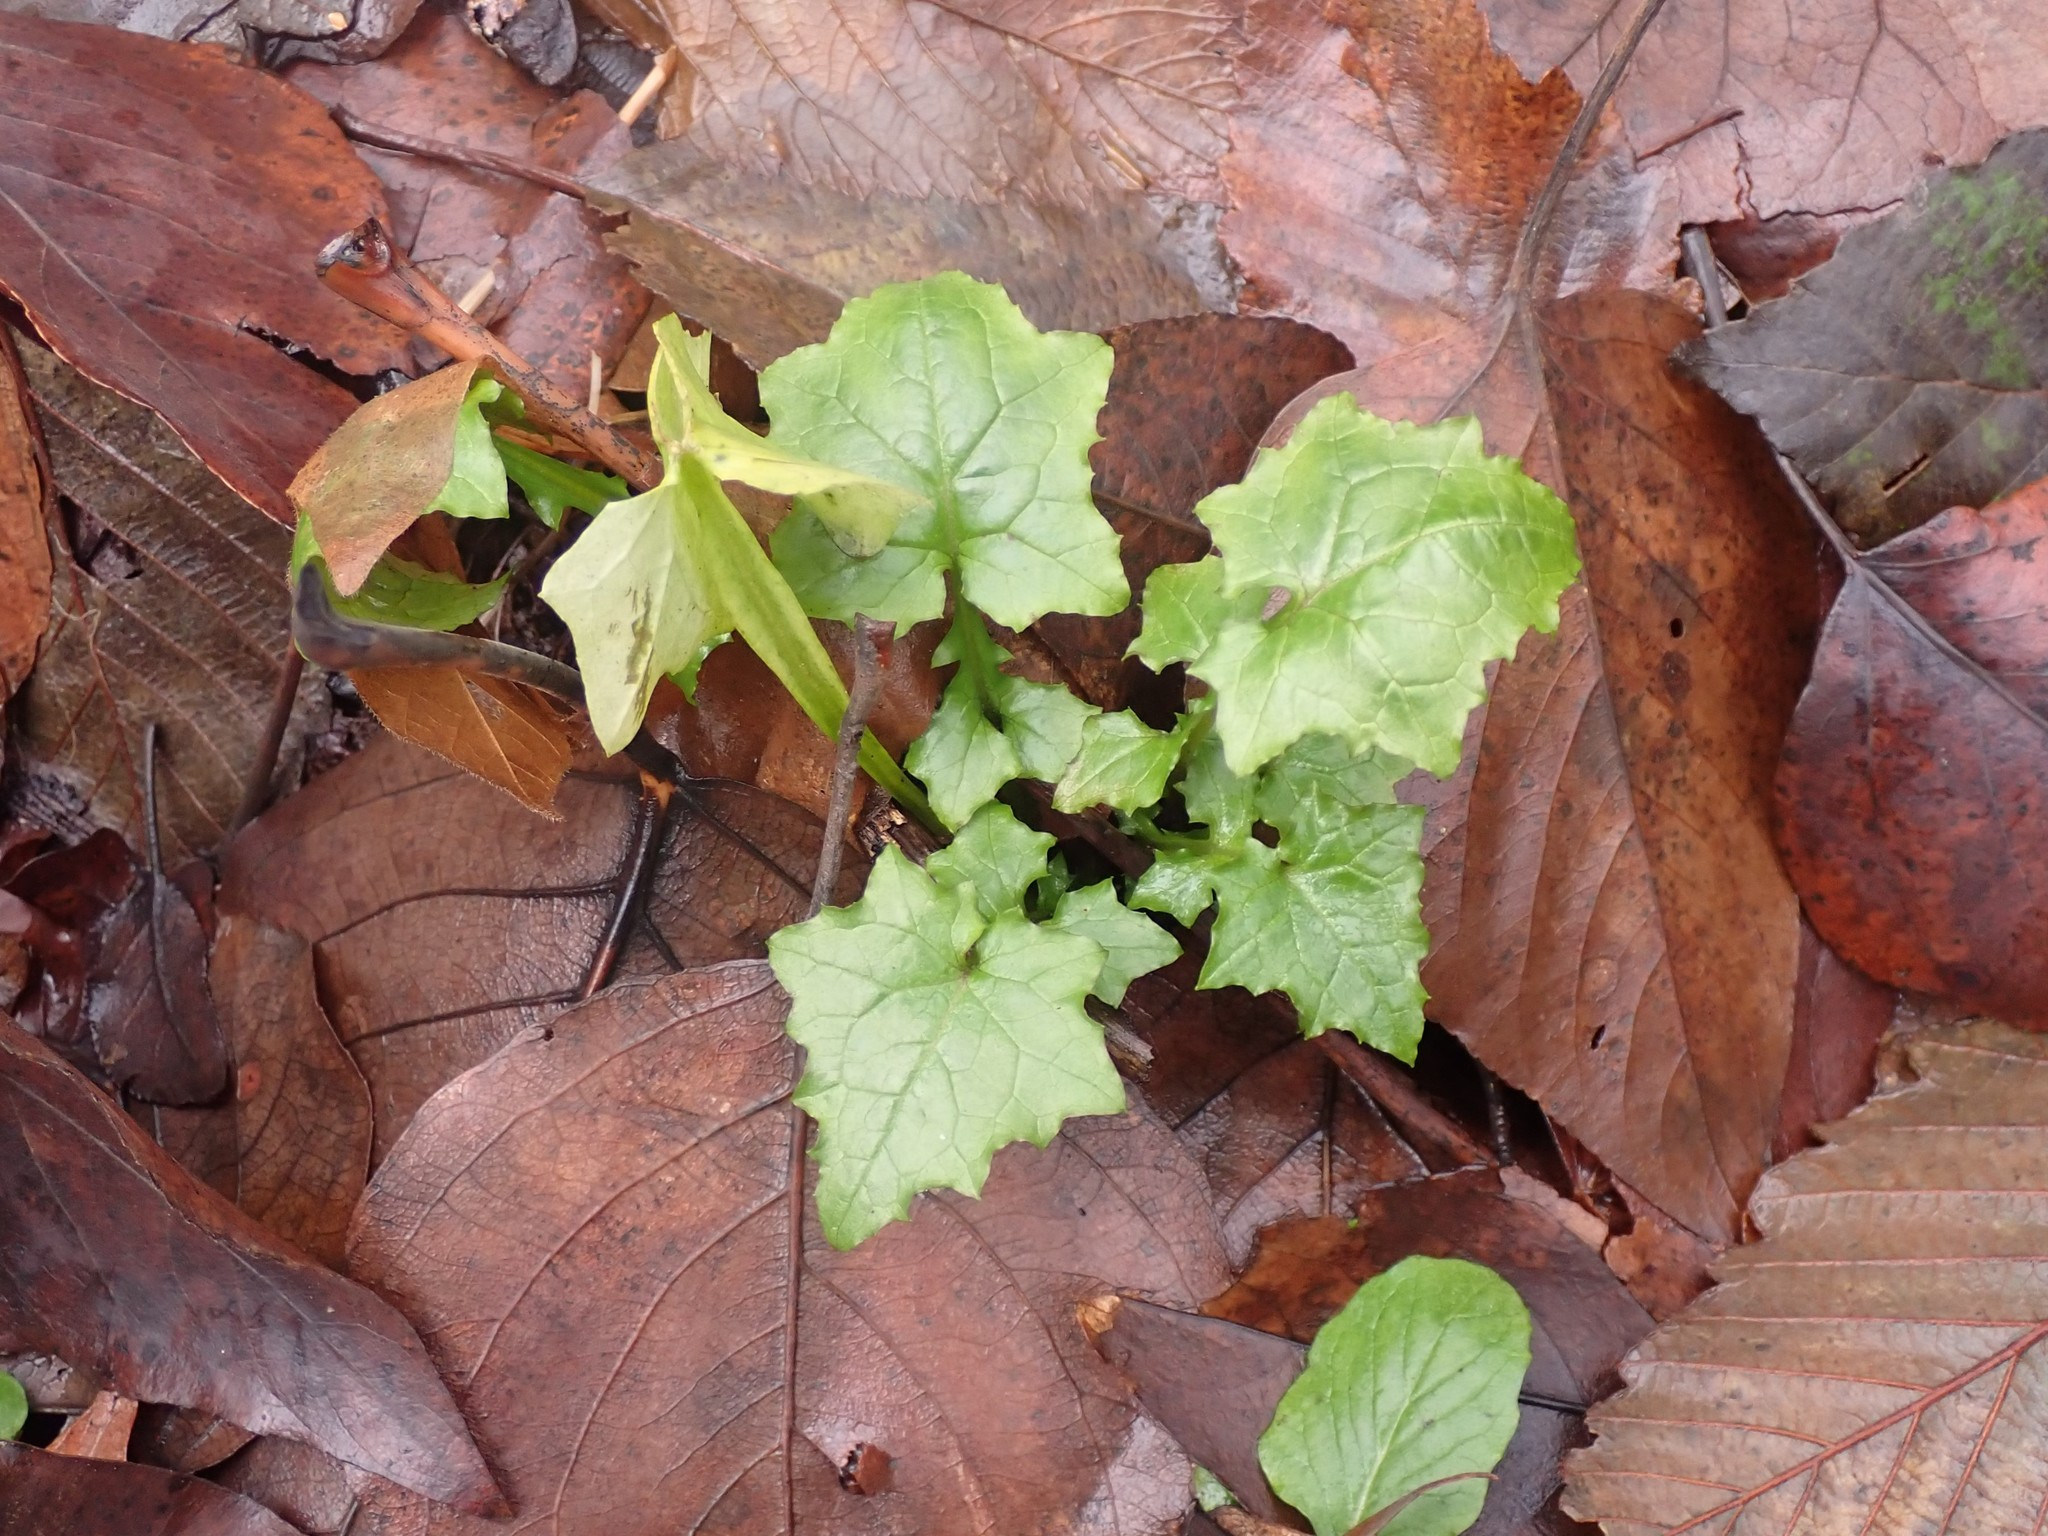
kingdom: Plantae
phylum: Tracheophyta
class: Magnoliopsida
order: Asterales
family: Asteraceae
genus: Mycelis
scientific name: Mycelis muralis
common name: Wall lettuce
